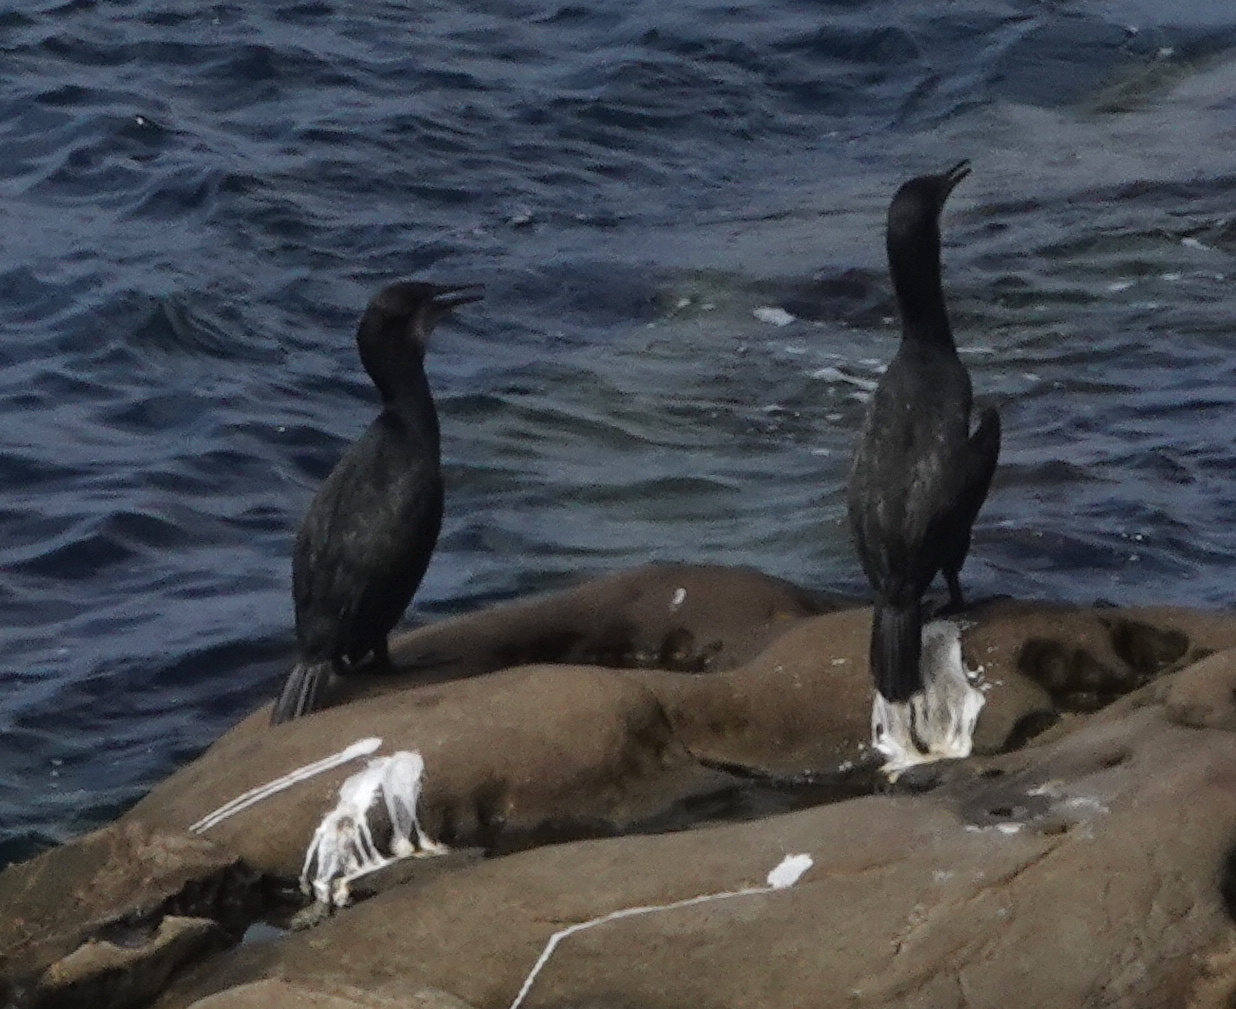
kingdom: Animalia
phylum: Chordata
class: Aves
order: Suliformes
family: Phalacrocoracidae
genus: Urile
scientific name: Urile penicillatus
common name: Brandt's cormorant
